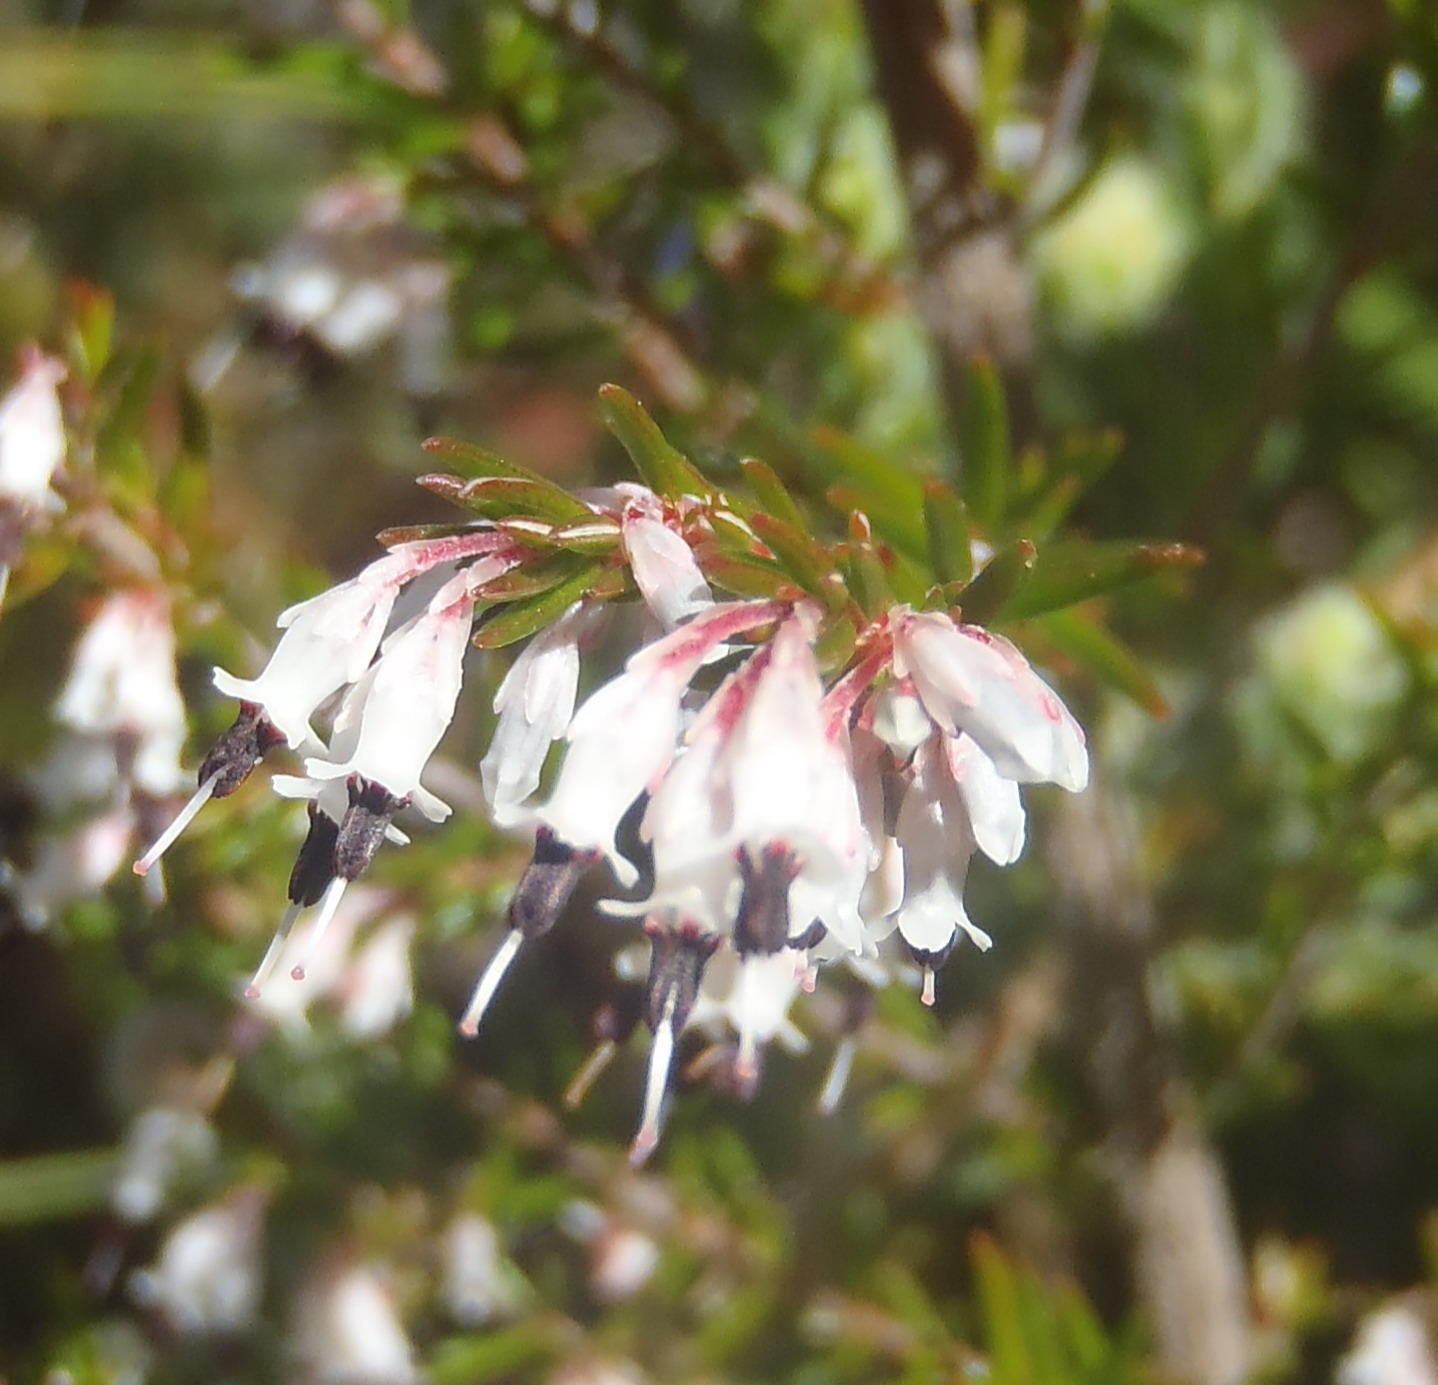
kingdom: Plantae
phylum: Tracheophyta
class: Magnoliopsida
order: Ericales
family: Ericaceae
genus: Erica
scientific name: Erica fuscescens
